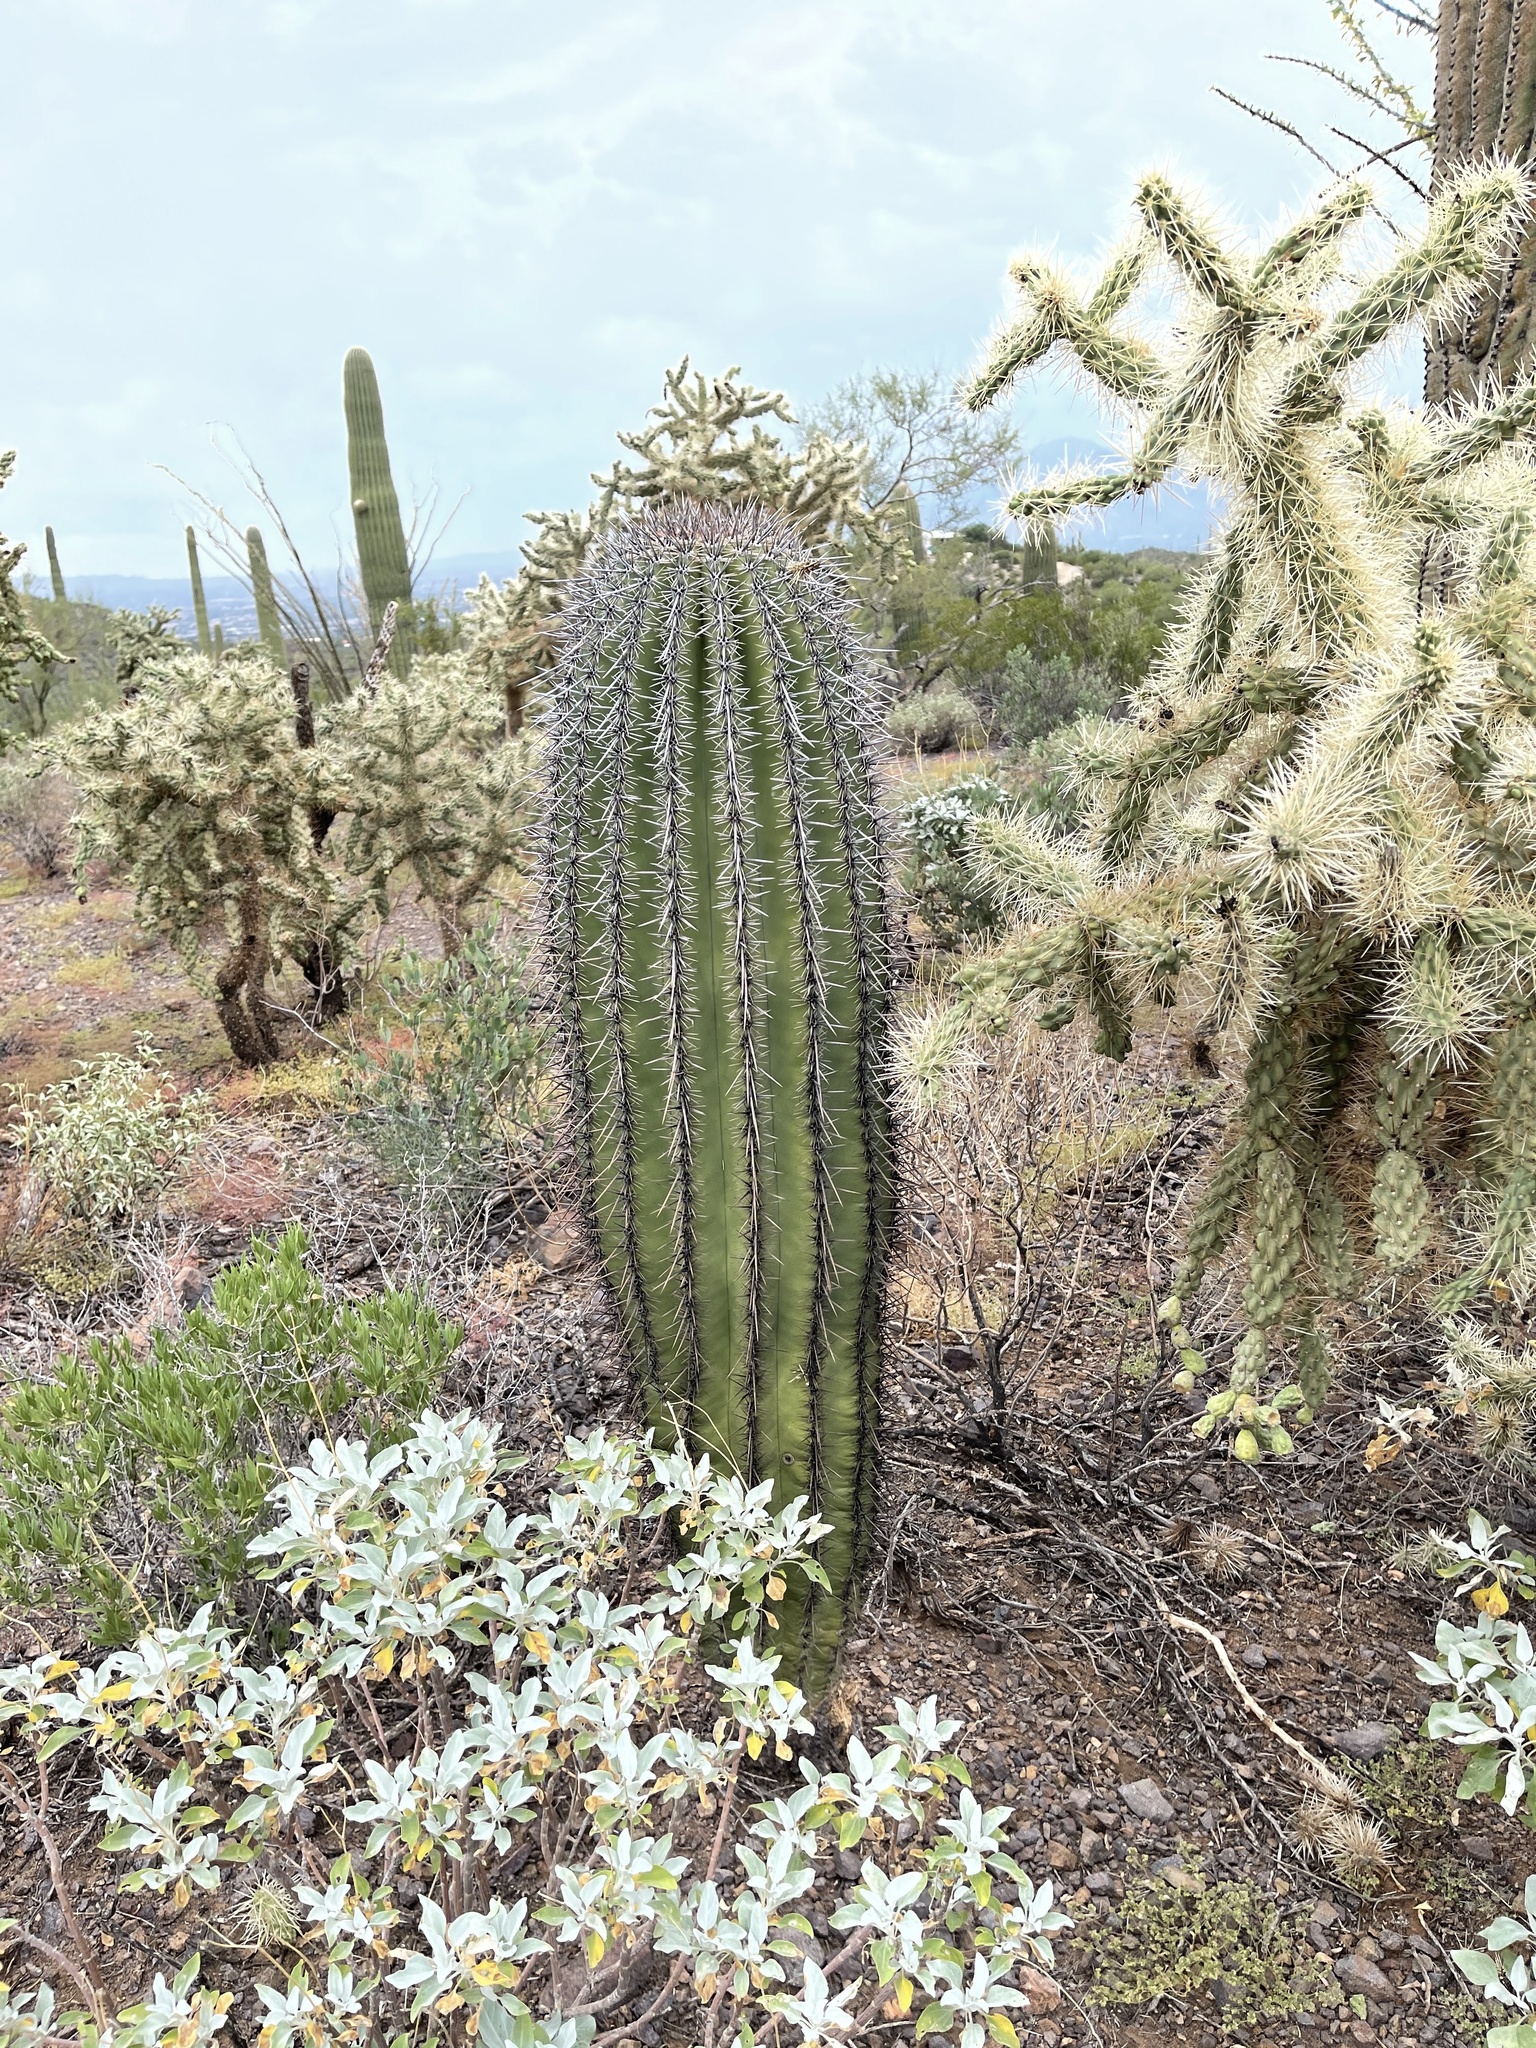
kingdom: Plantae
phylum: Tracheophyta
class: Magnoliopsida
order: Caryophyllales
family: Cactaceae
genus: Carnegiea
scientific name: Carnegiea gigantea
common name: Saguaro
